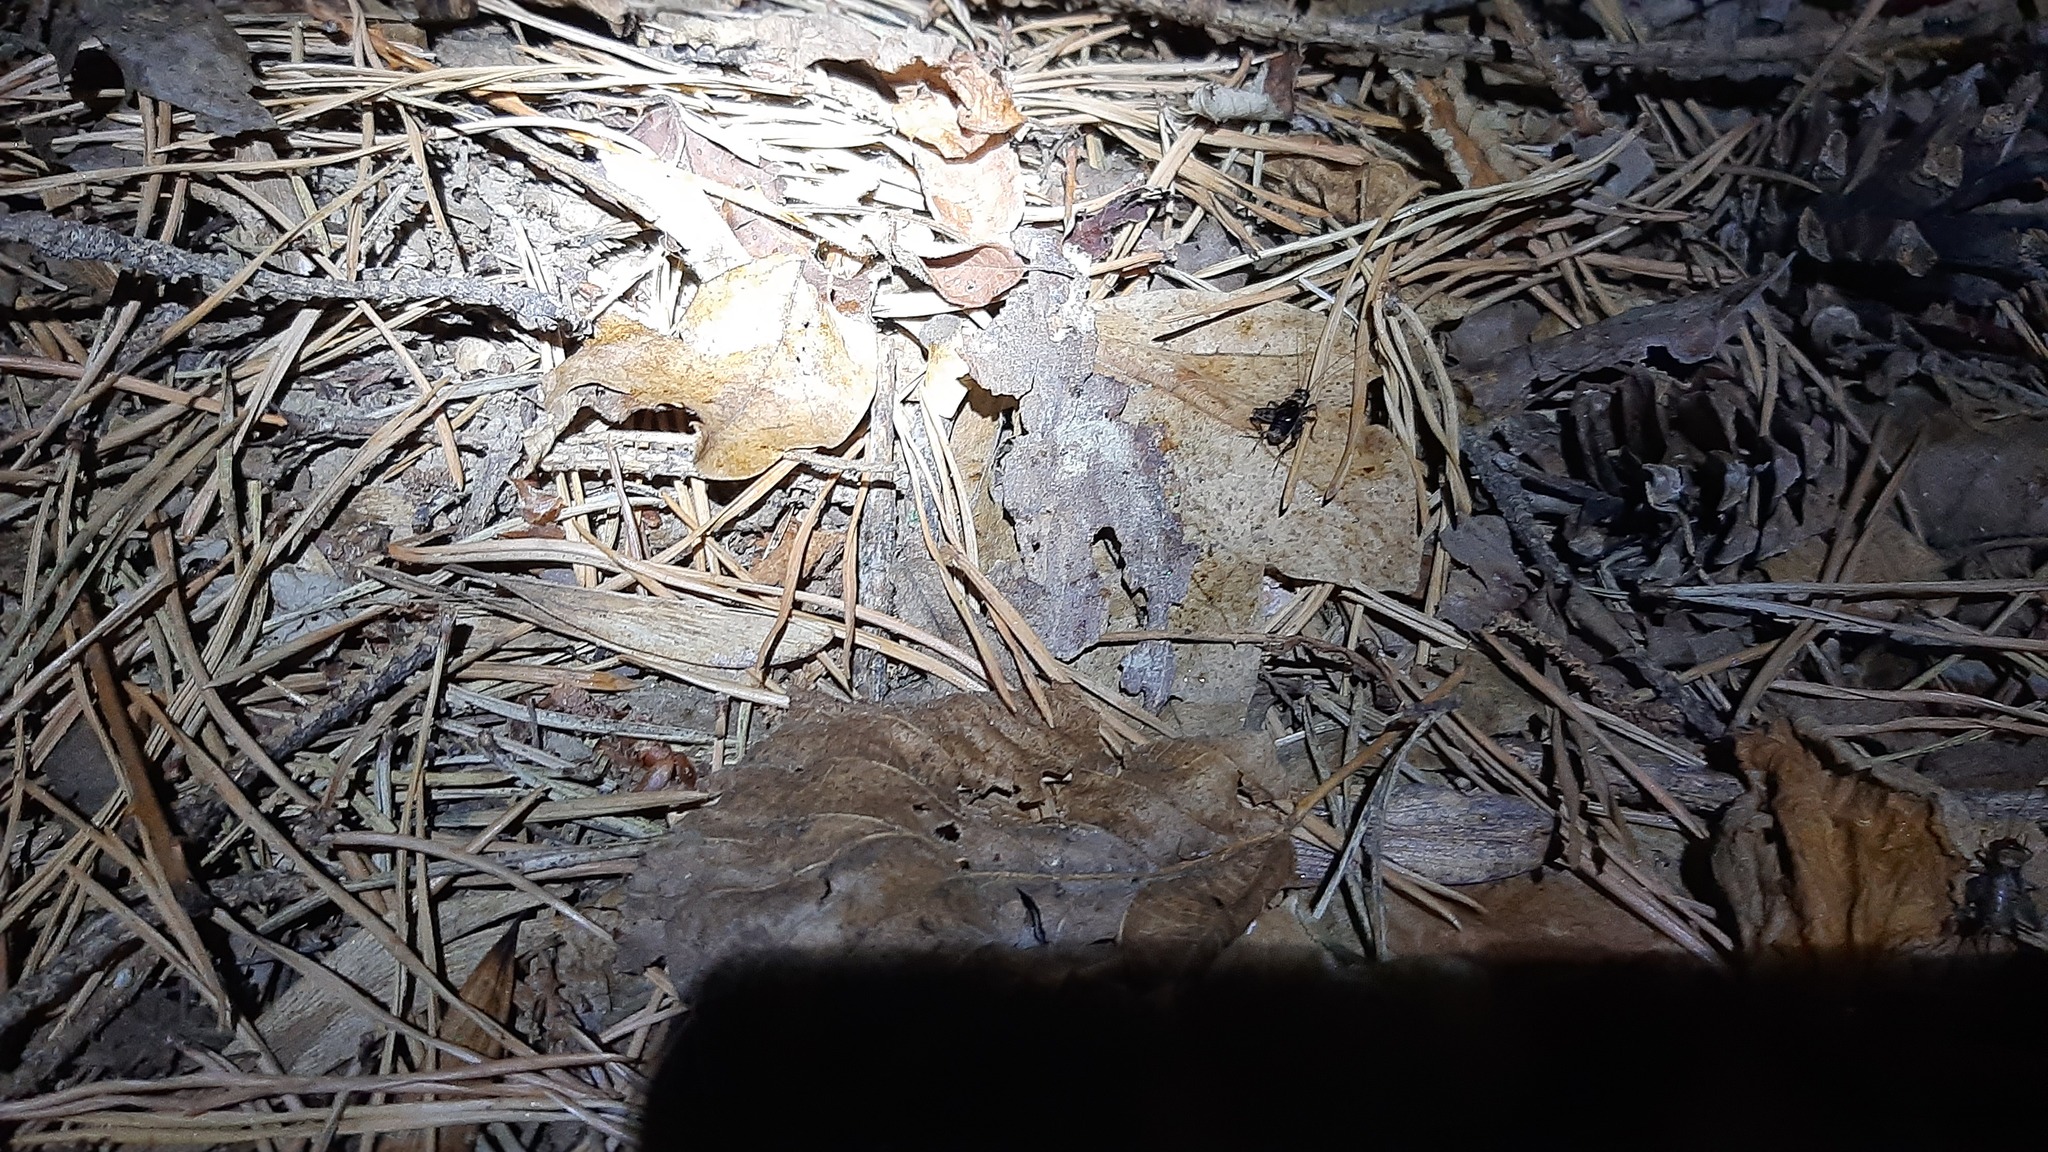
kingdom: Animalia
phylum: Arthropoda
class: Insecta
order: Orthoptera
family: Trigonidiidae
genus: Nemobius
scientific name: Nemobius sylvestris
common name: Wood-cricket
